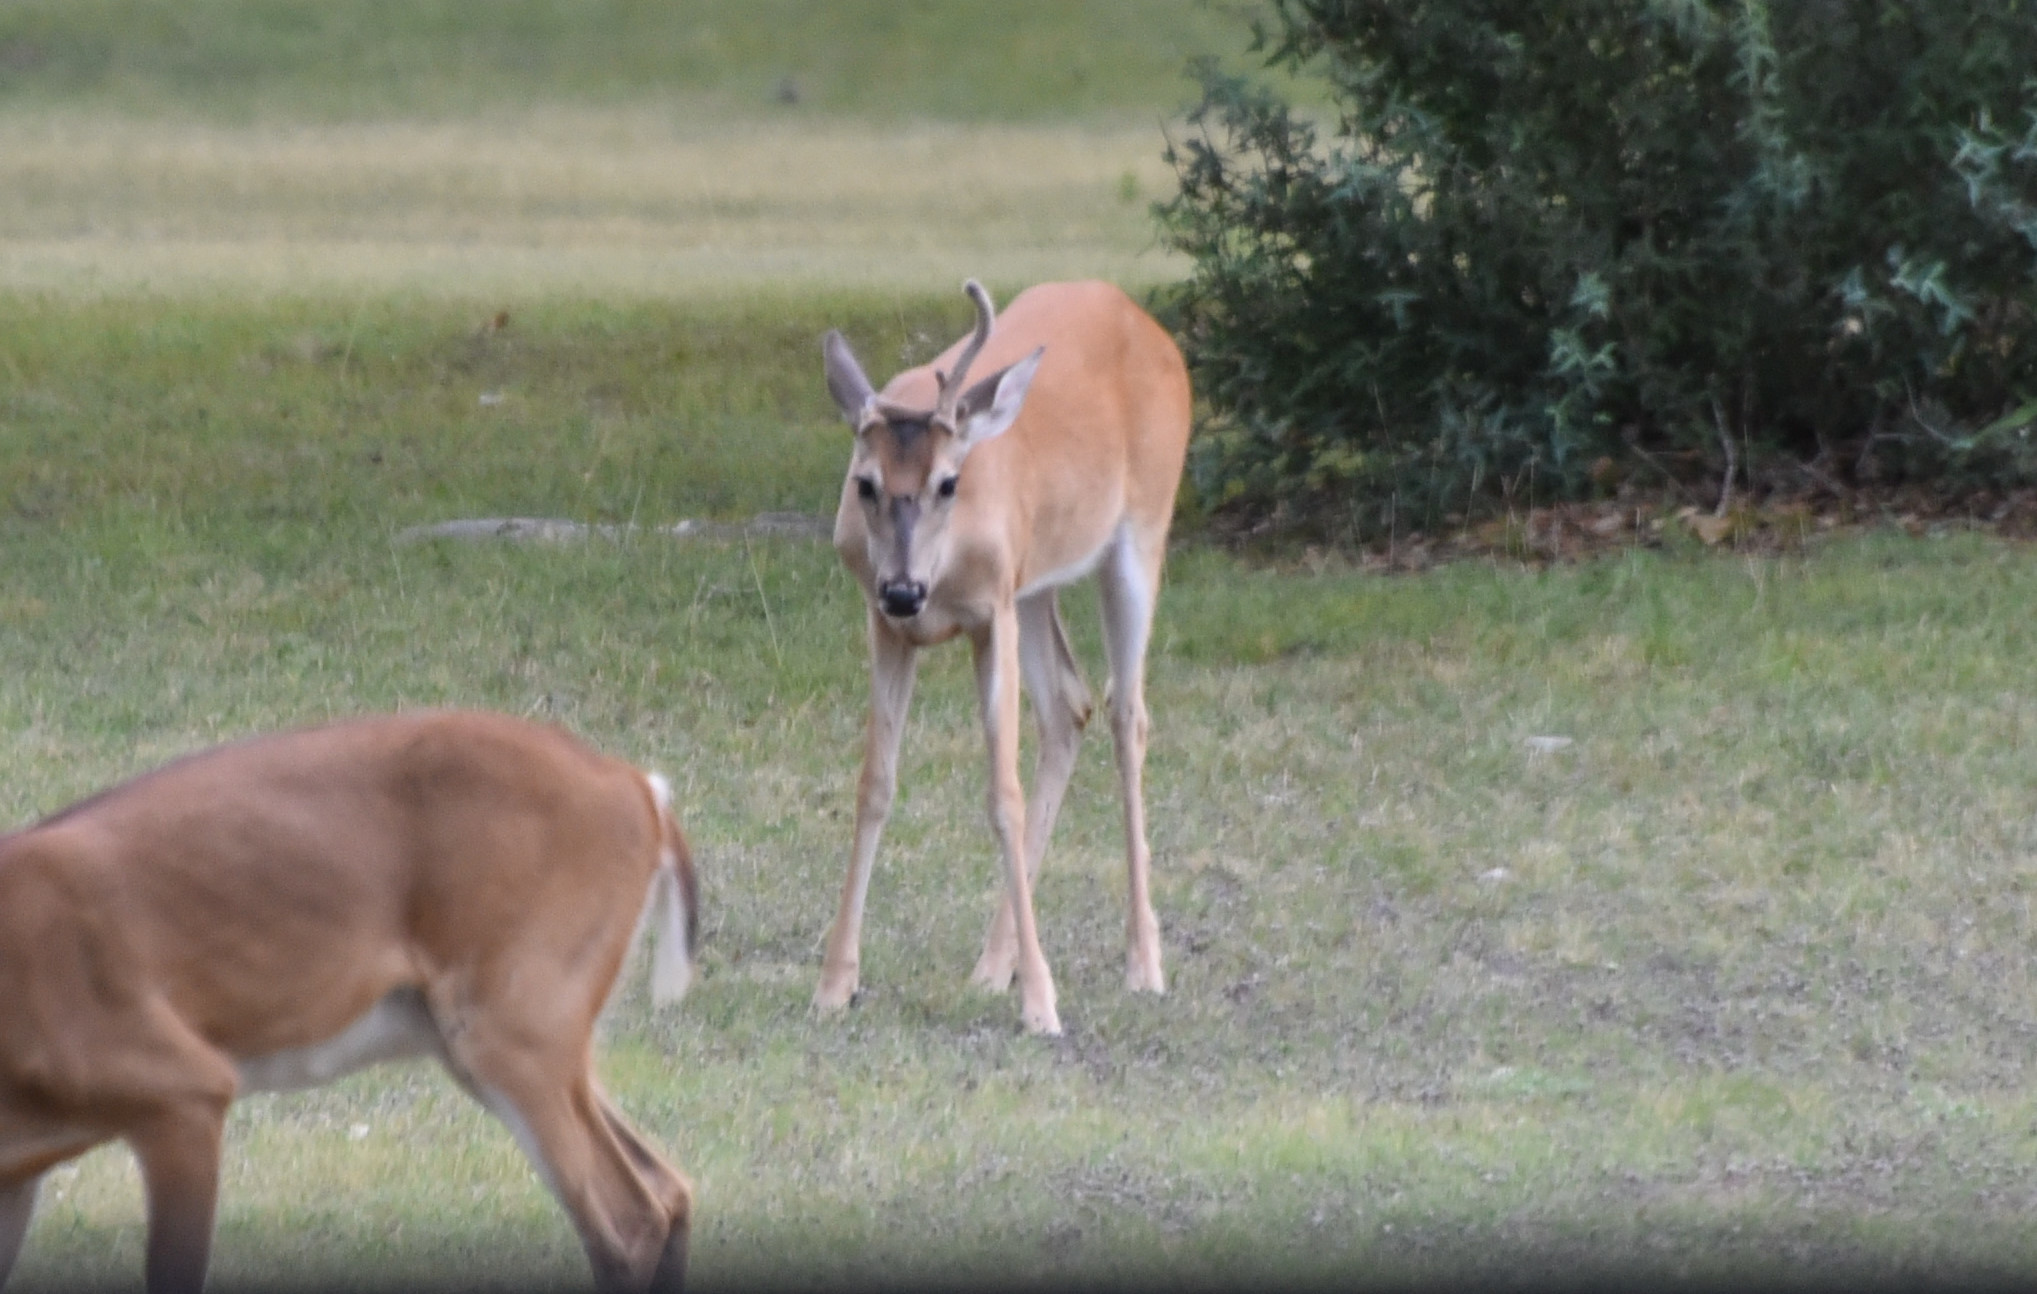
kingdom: Animalia
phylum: Chordata
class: Mammalia
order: Artiodactyla
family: Cervidae
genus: Odocoileus
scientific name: Odocoileus virginianus
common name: White-tailed deer
